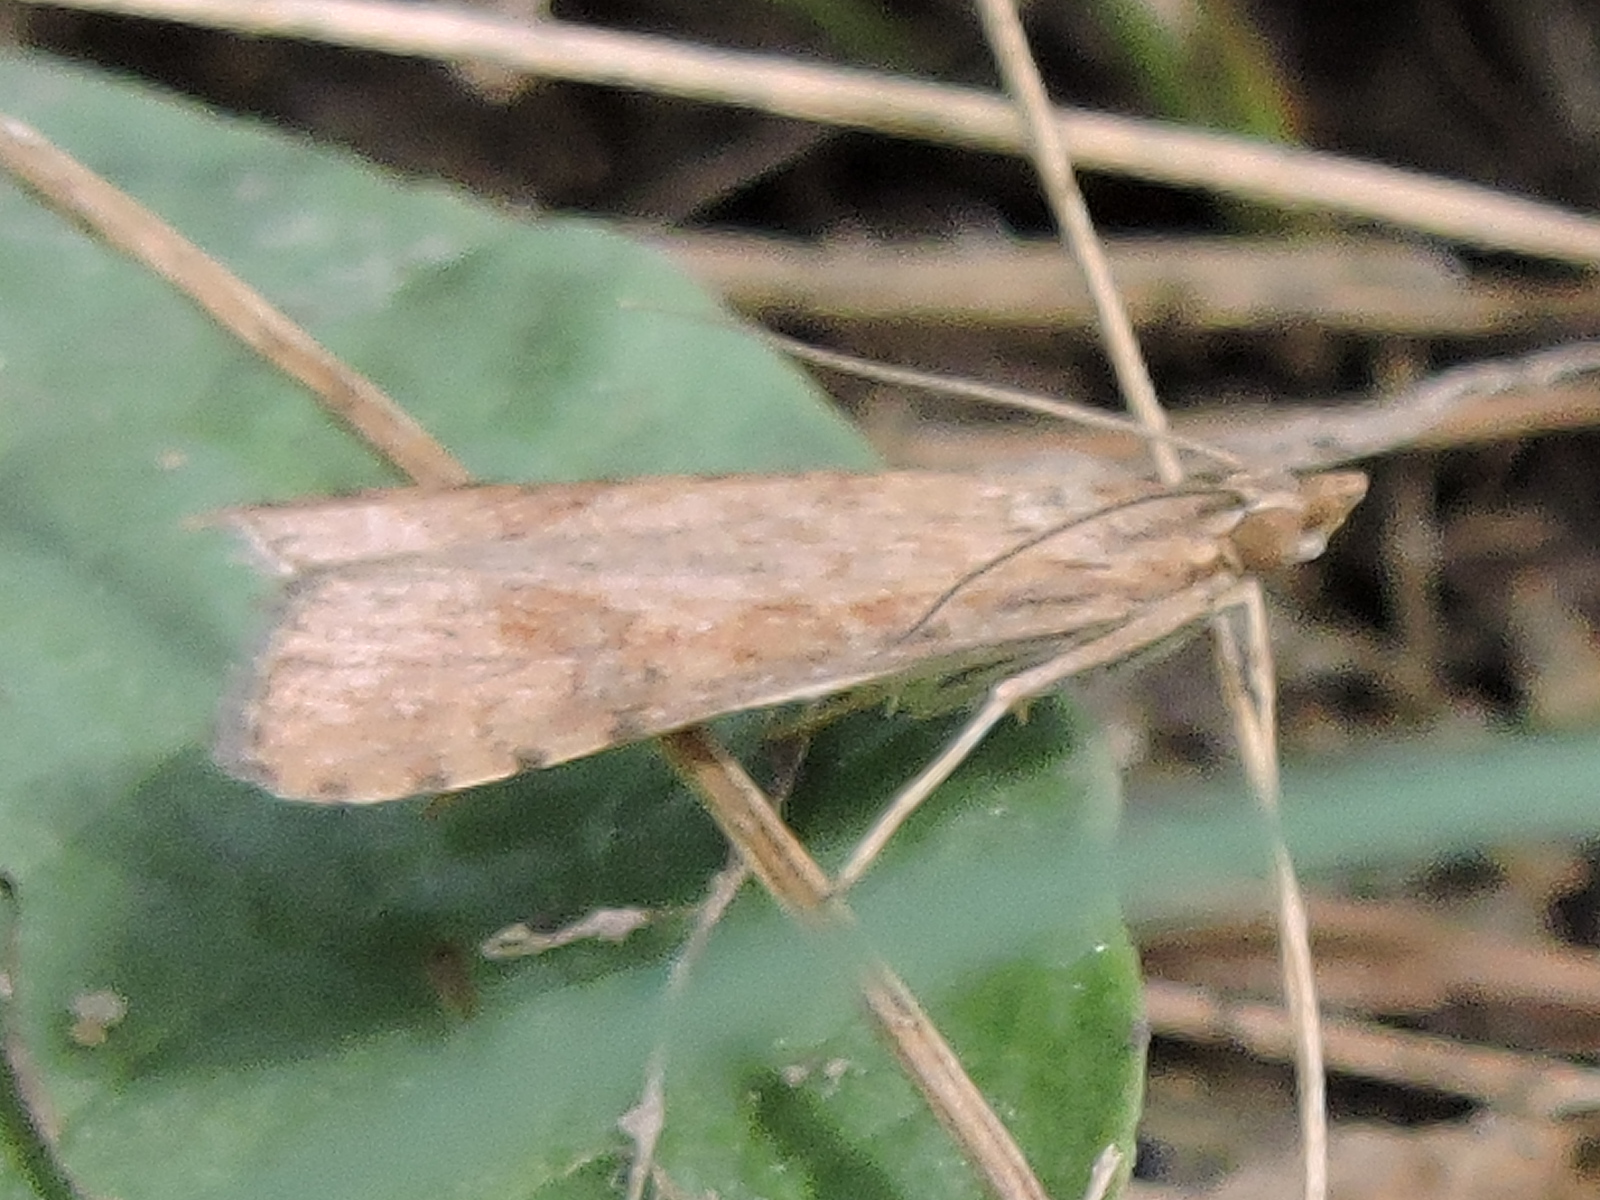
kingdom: Animalia
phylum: Arthropoda
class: Insecta
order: Lepidoptera
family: Crambidae
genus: Nomophila
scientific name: Nomophila nearctica
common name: American rush veneer
